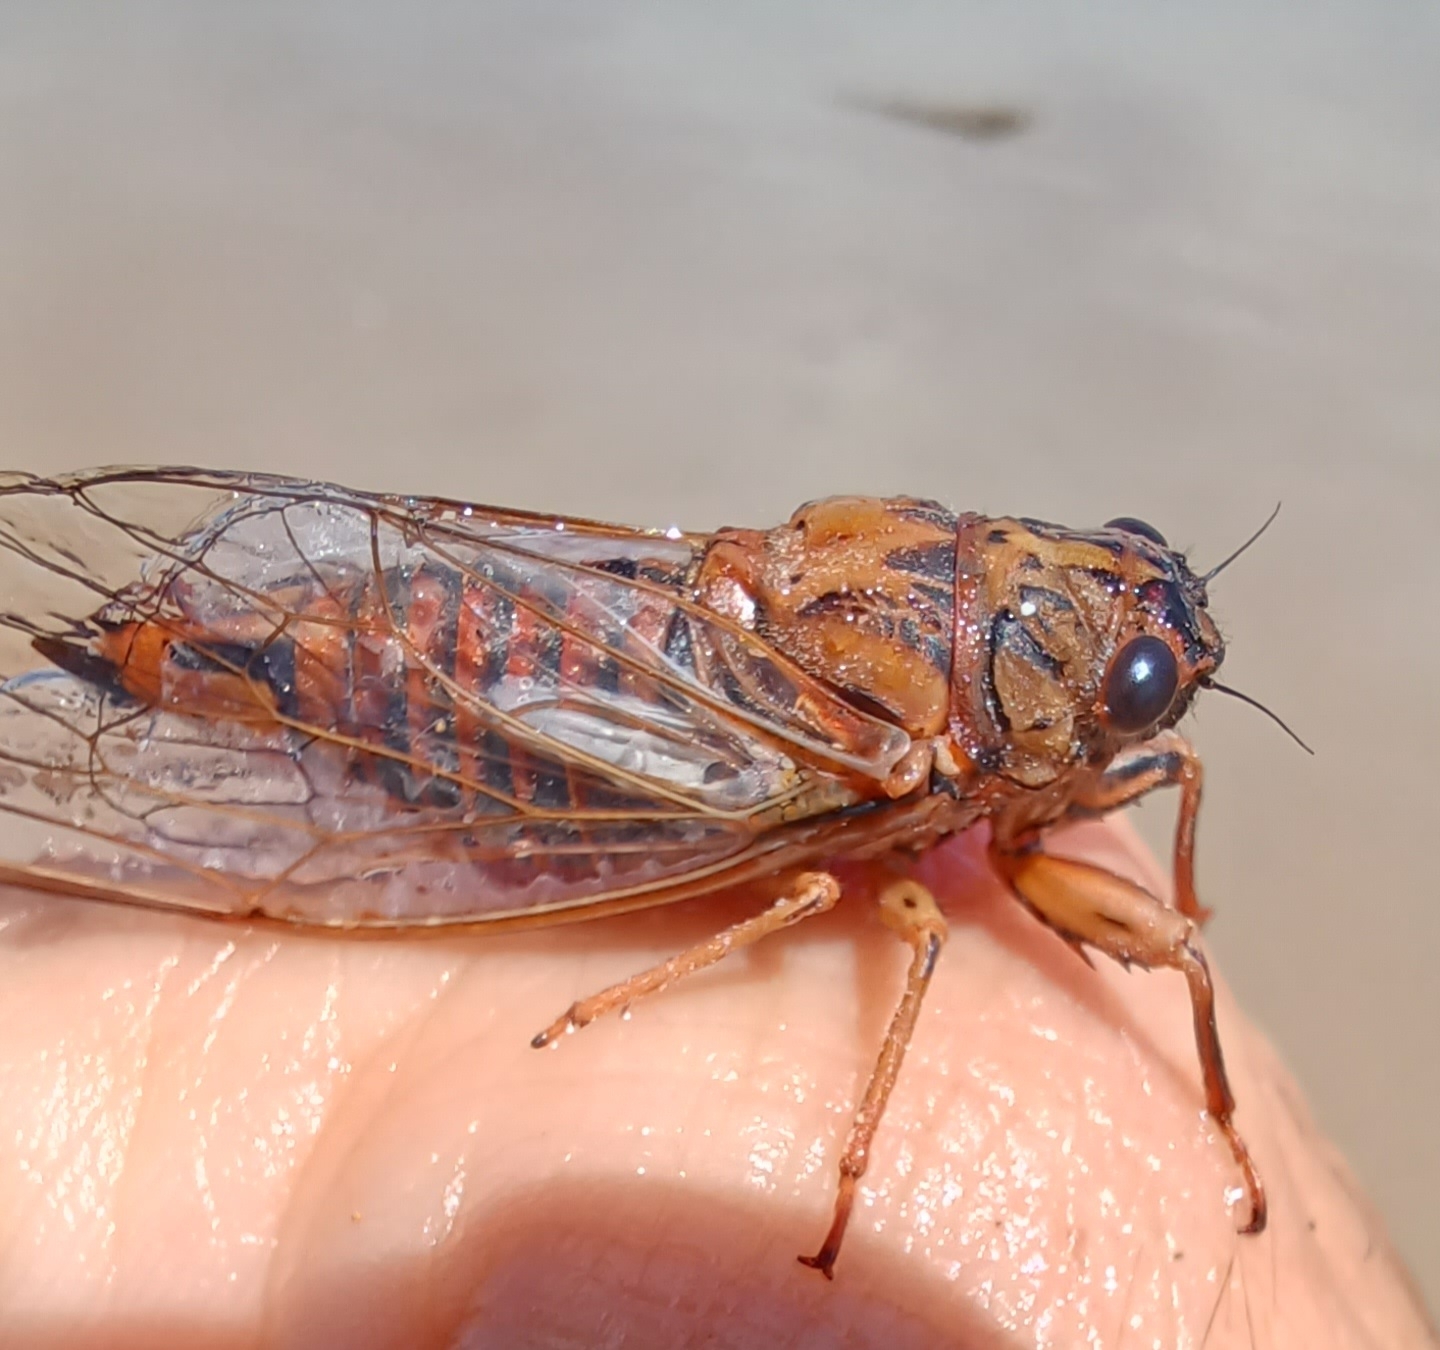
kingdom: Animalia
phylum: Arthropoda
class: Insecta
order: Hemiptera
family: Cicadidae
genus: Yoyetta
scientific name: Yoyetta subalpina
